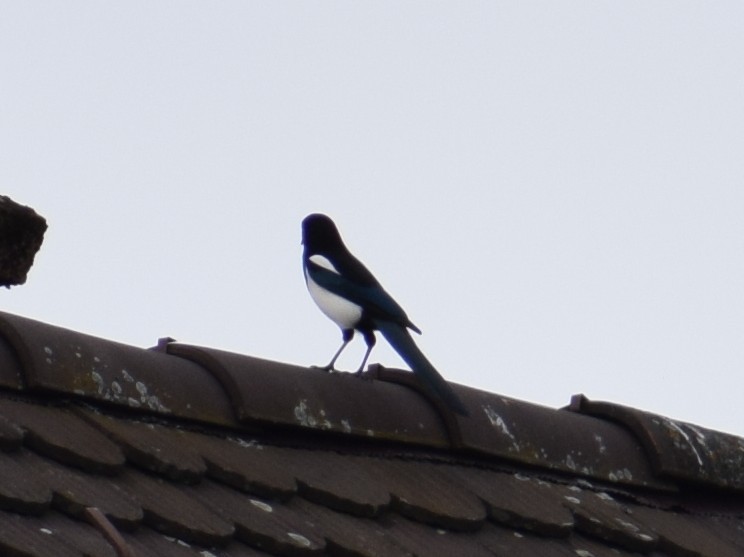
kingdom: Animalia
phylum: Chordata
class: Aves
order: Passeriformes
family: Corvidae
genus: Pica
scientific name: Pica pica
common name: Eurasian magpie
